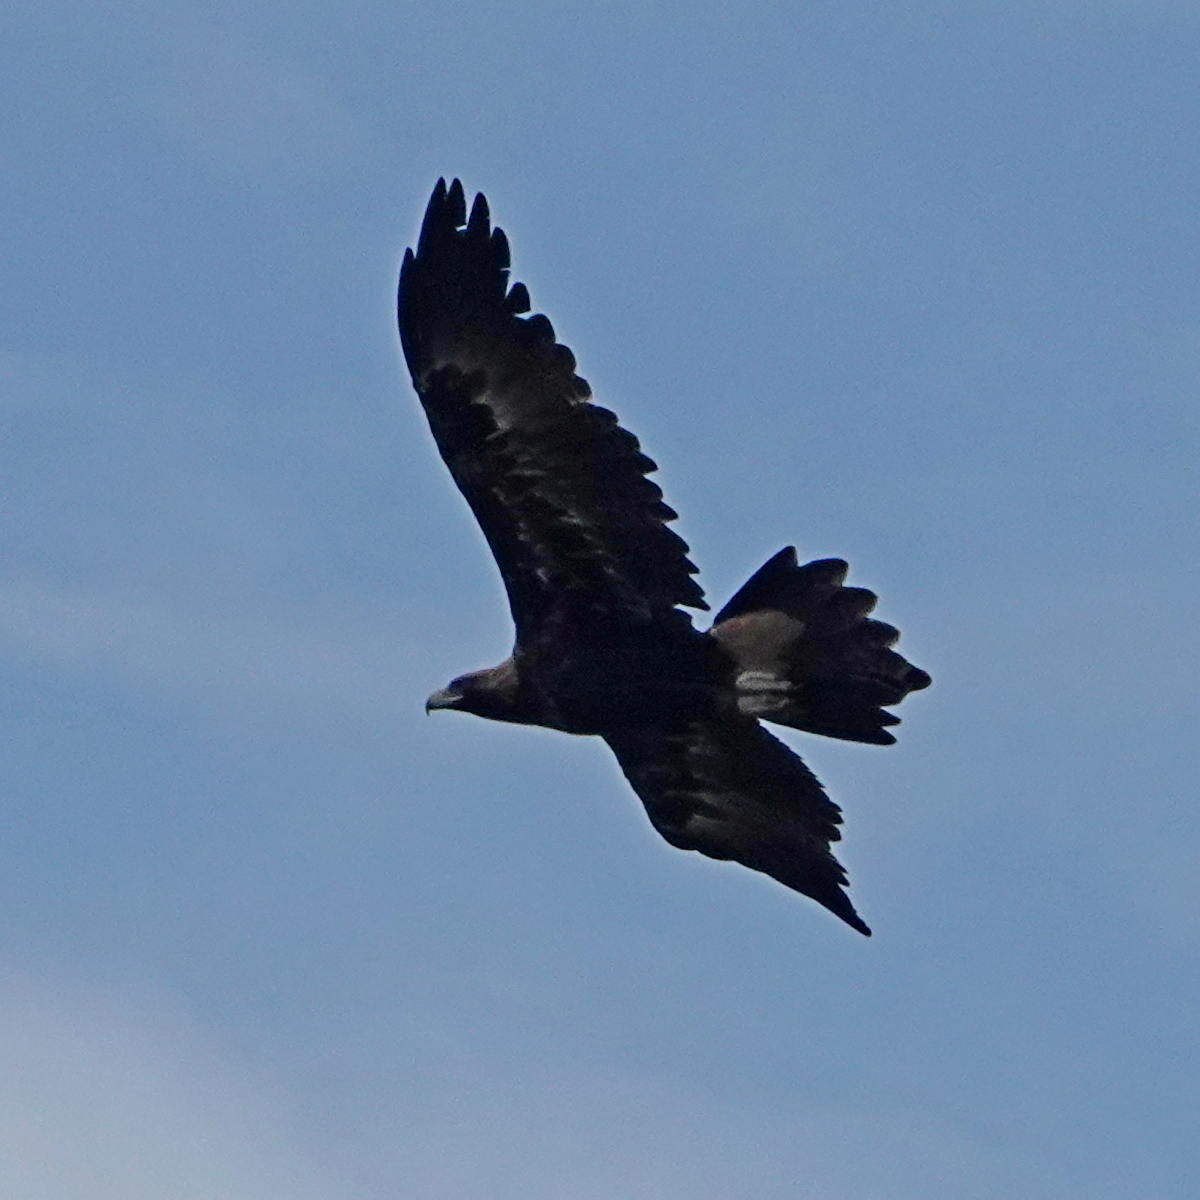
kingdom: Animalia
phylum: Chordata
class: Aves
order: Accipitriformes
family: Accipitridae
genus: Aquila
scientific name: Aquila audax
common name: Wedge-tailed eagle
